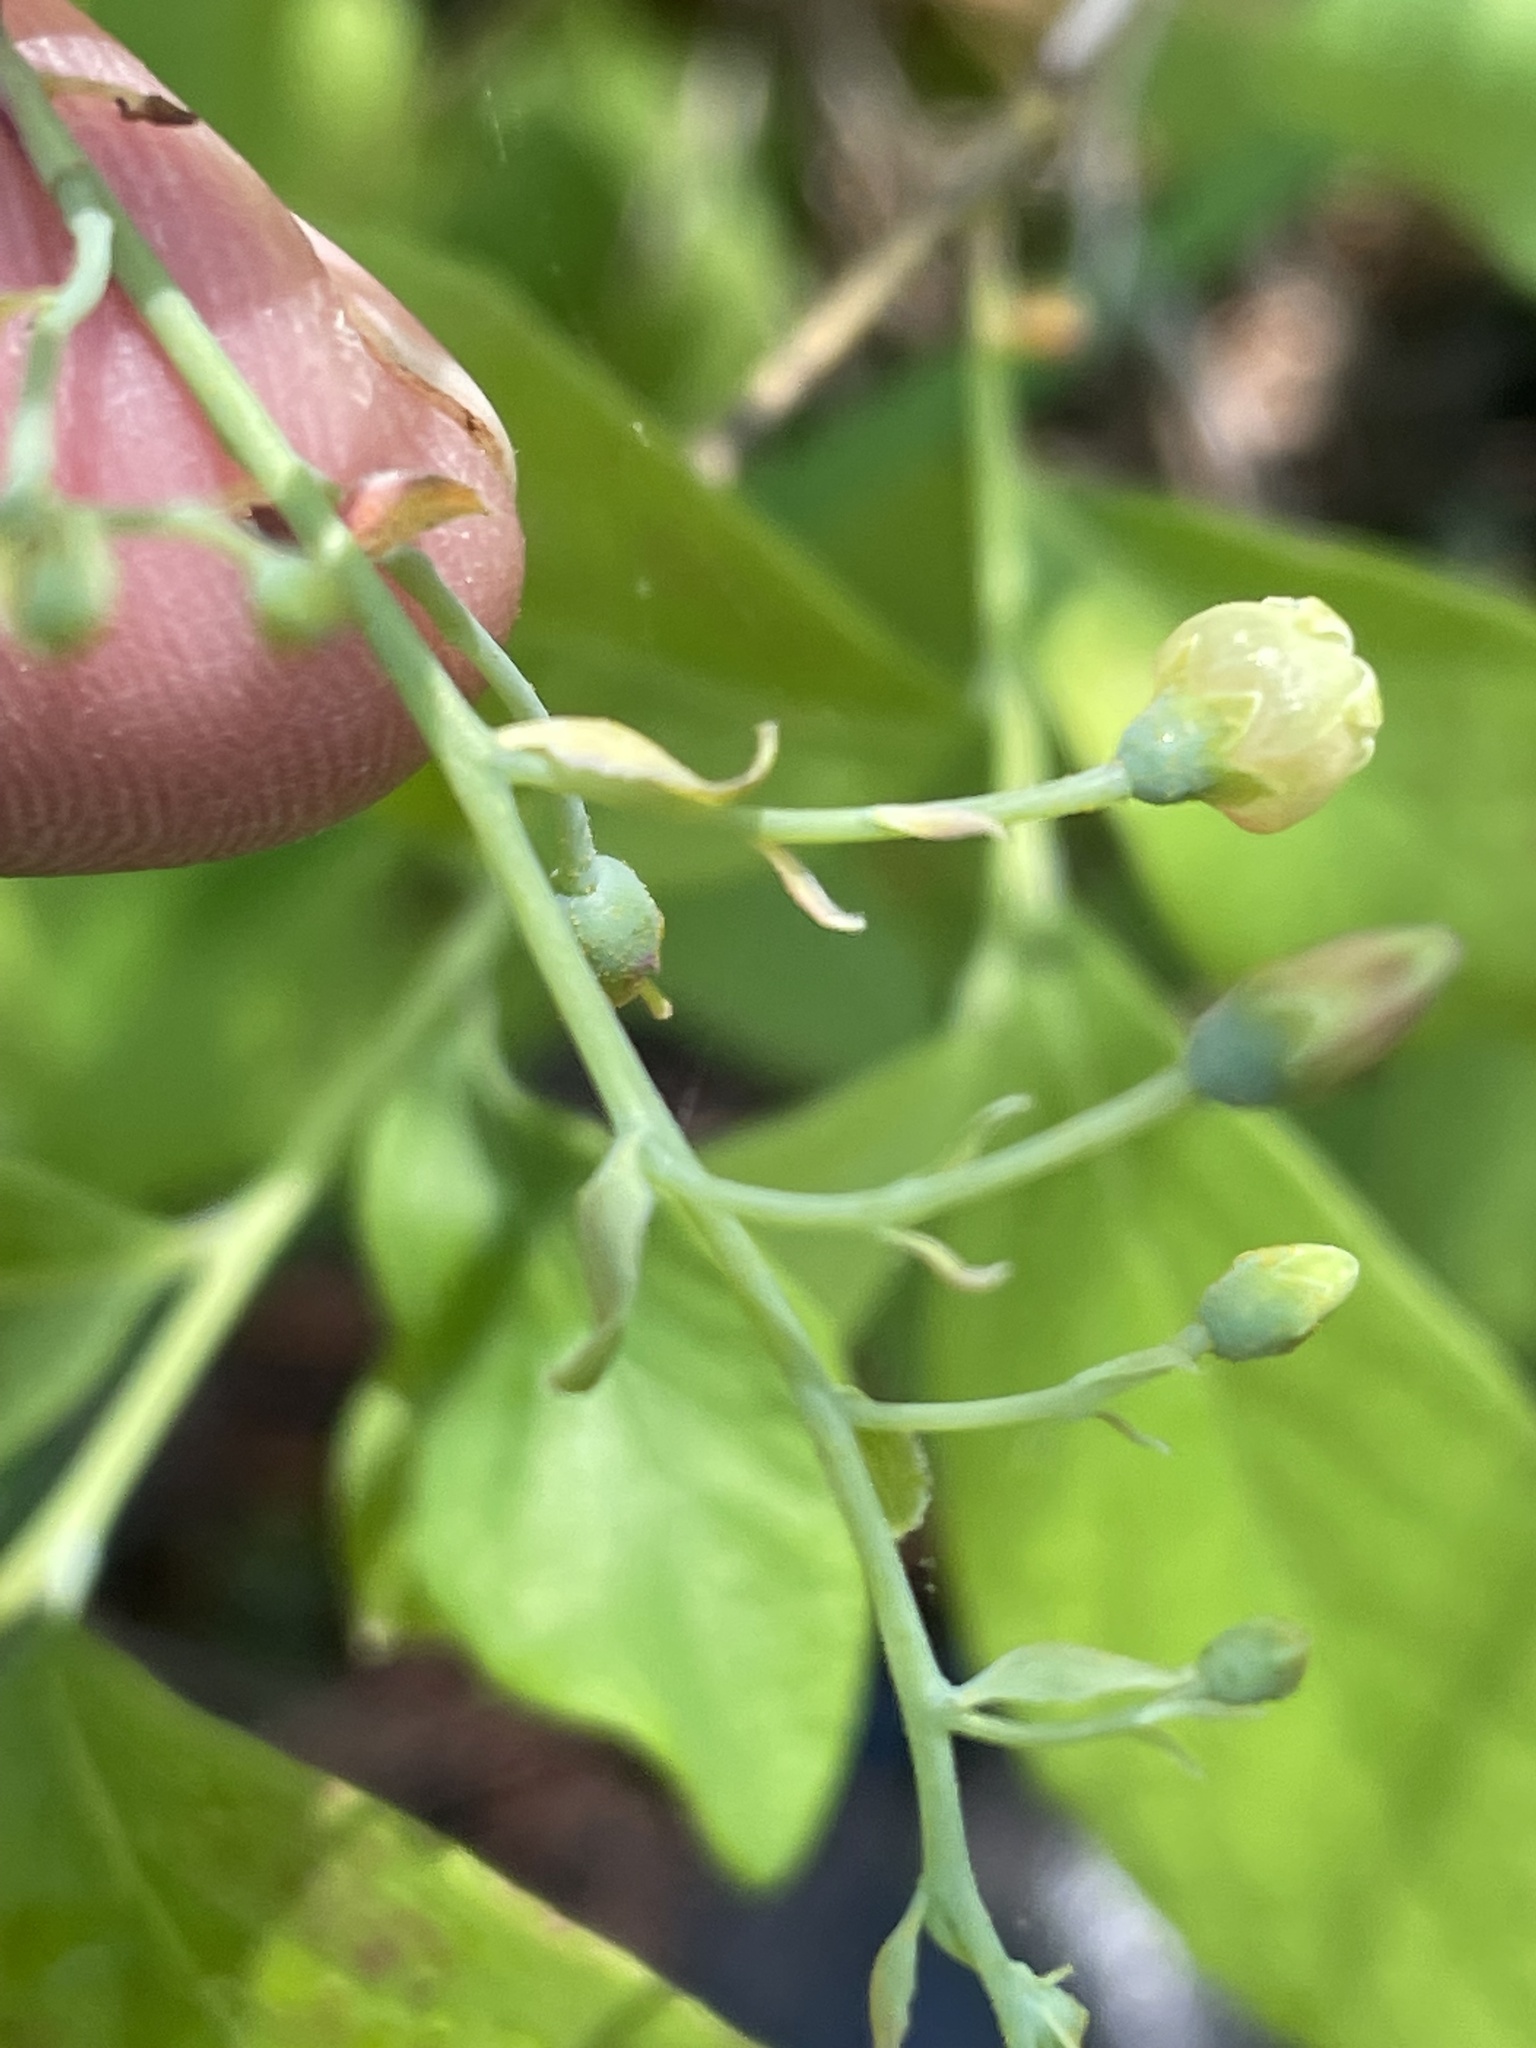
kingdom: Plantae
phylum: Tracheophyta
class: Magnoliopsida
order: Ericales
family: Ericaceae
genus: Gaylussacia
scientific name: Gaylussacia frondosa
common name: Dangleberry
